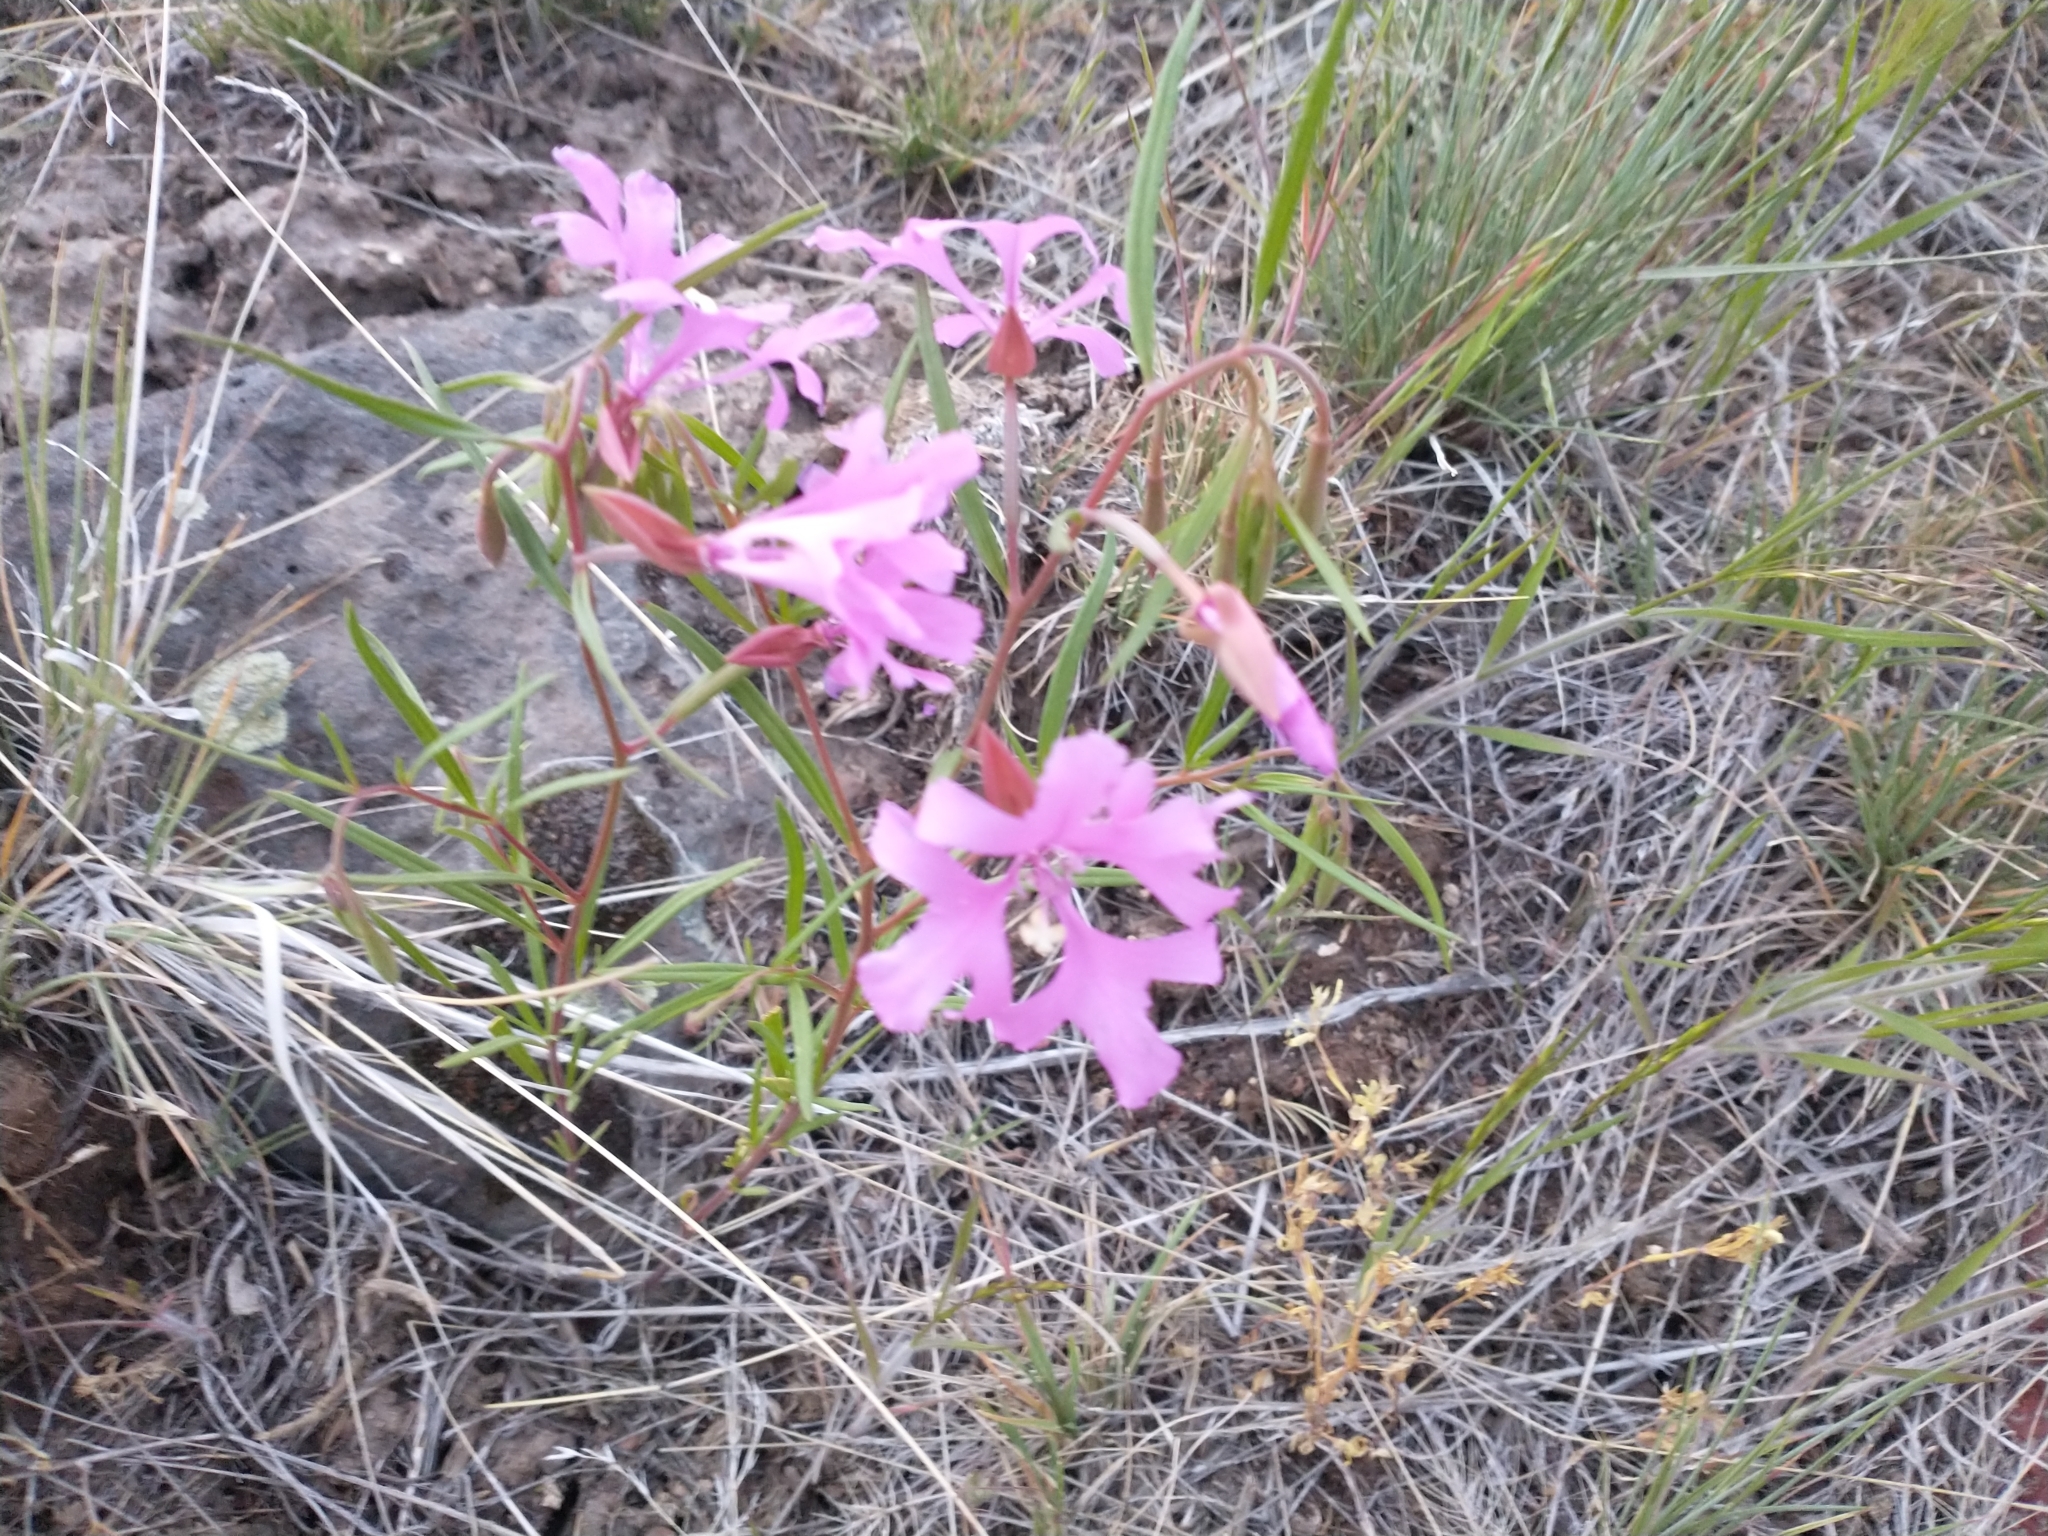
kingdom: Plantae
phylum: Tracheophyta
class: Magnoliopsida
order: Myrtales
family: Onagraceae
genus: Clarkia
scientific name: Clarkia pulchella
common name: Deer horn
